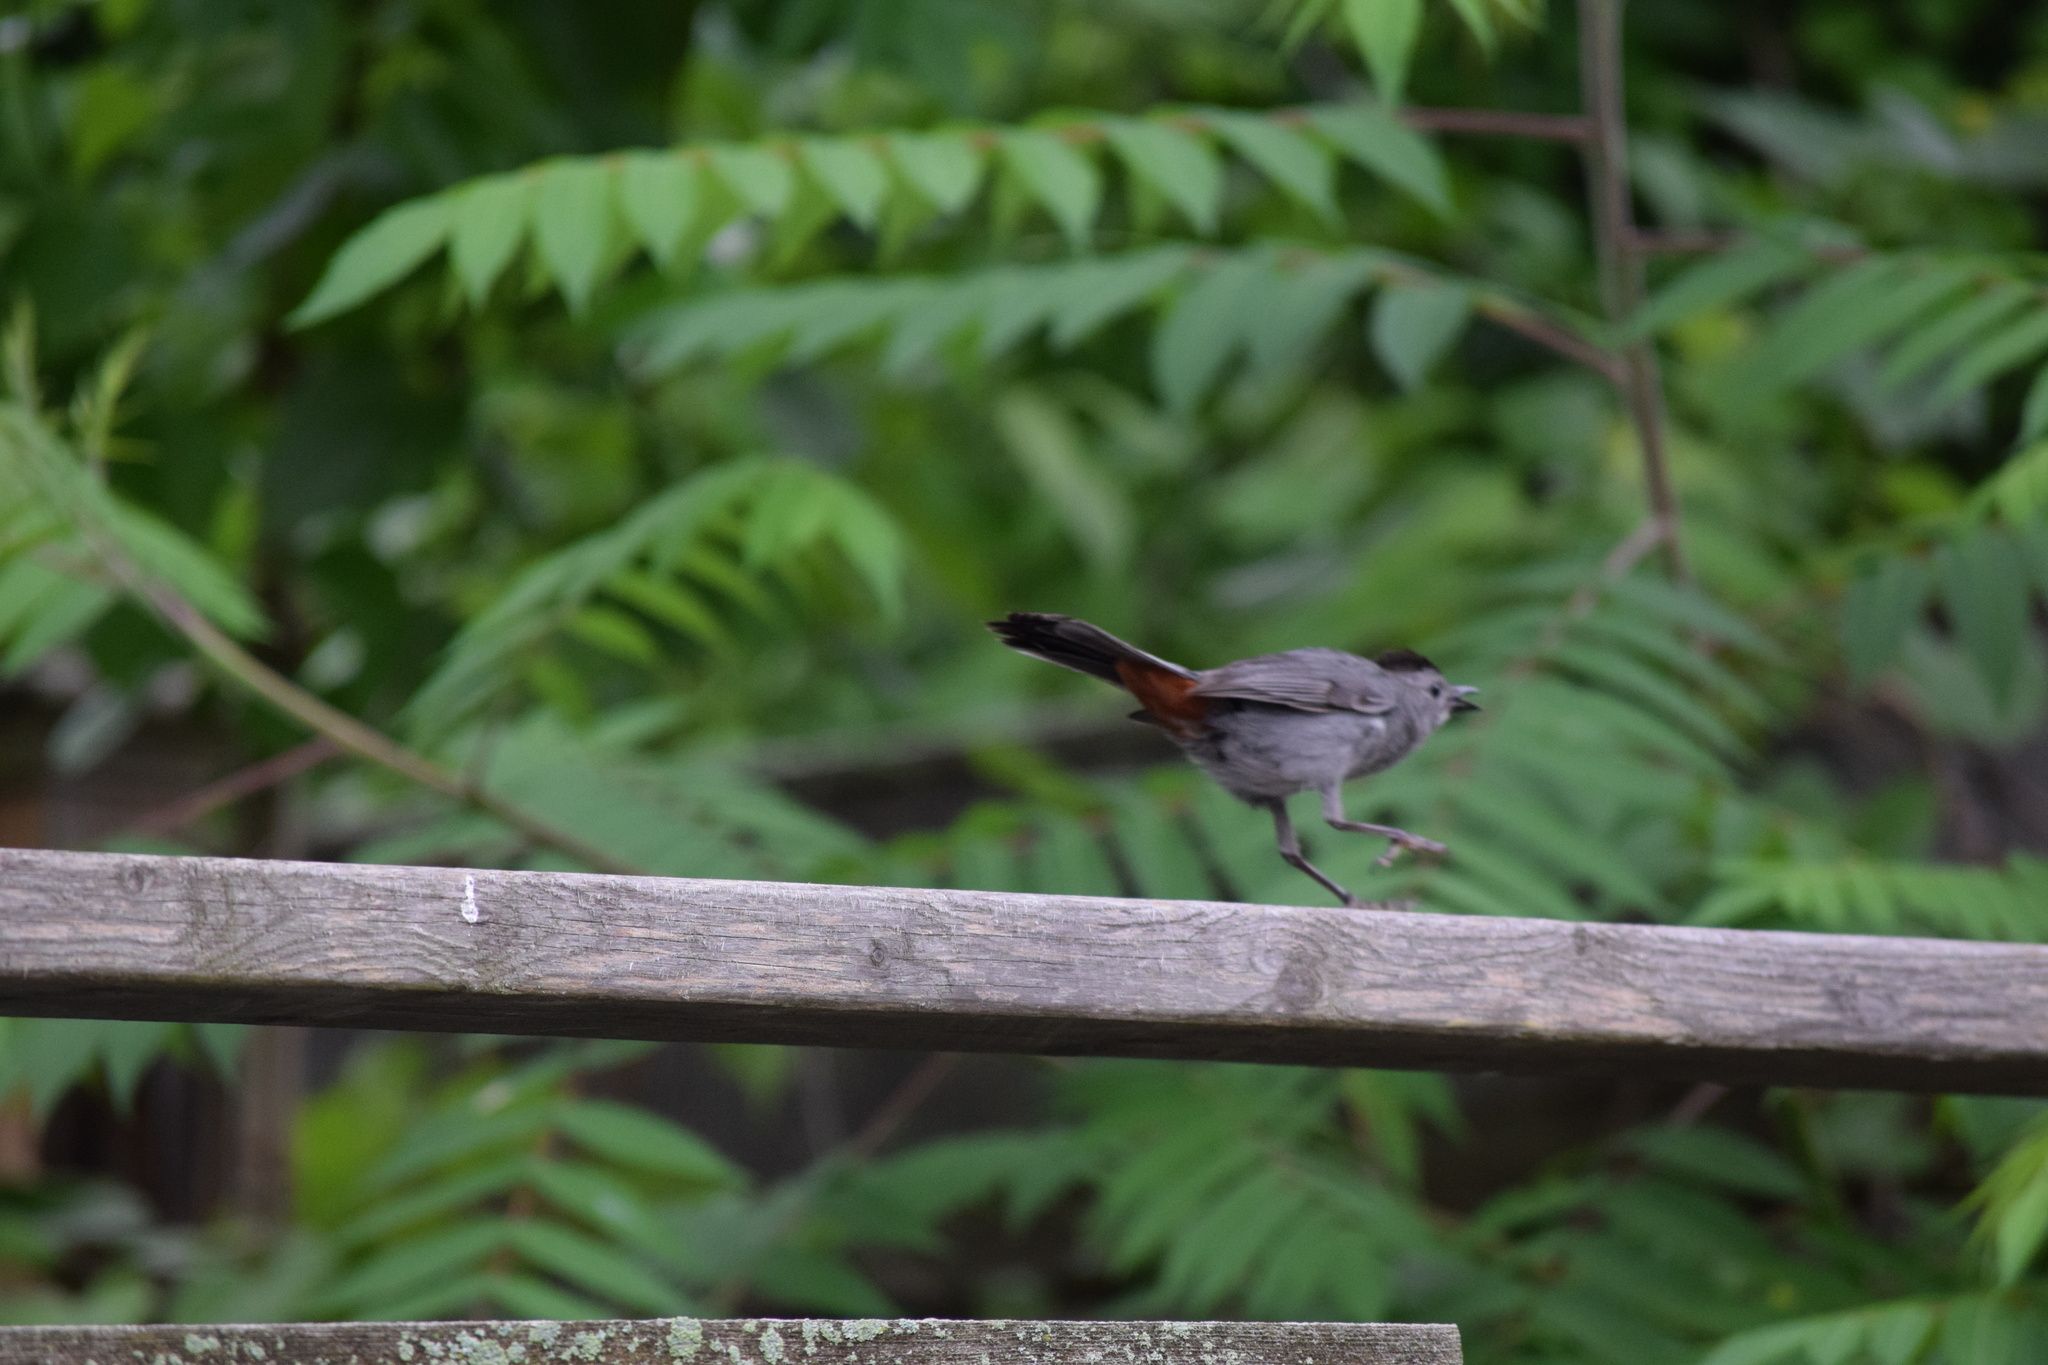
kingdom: Animalia
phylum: Chordata
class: Aves
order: Passeriformes
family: Mimidae
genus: Dumetella
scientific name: Dumetella carolinensis
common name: Gray catbird
